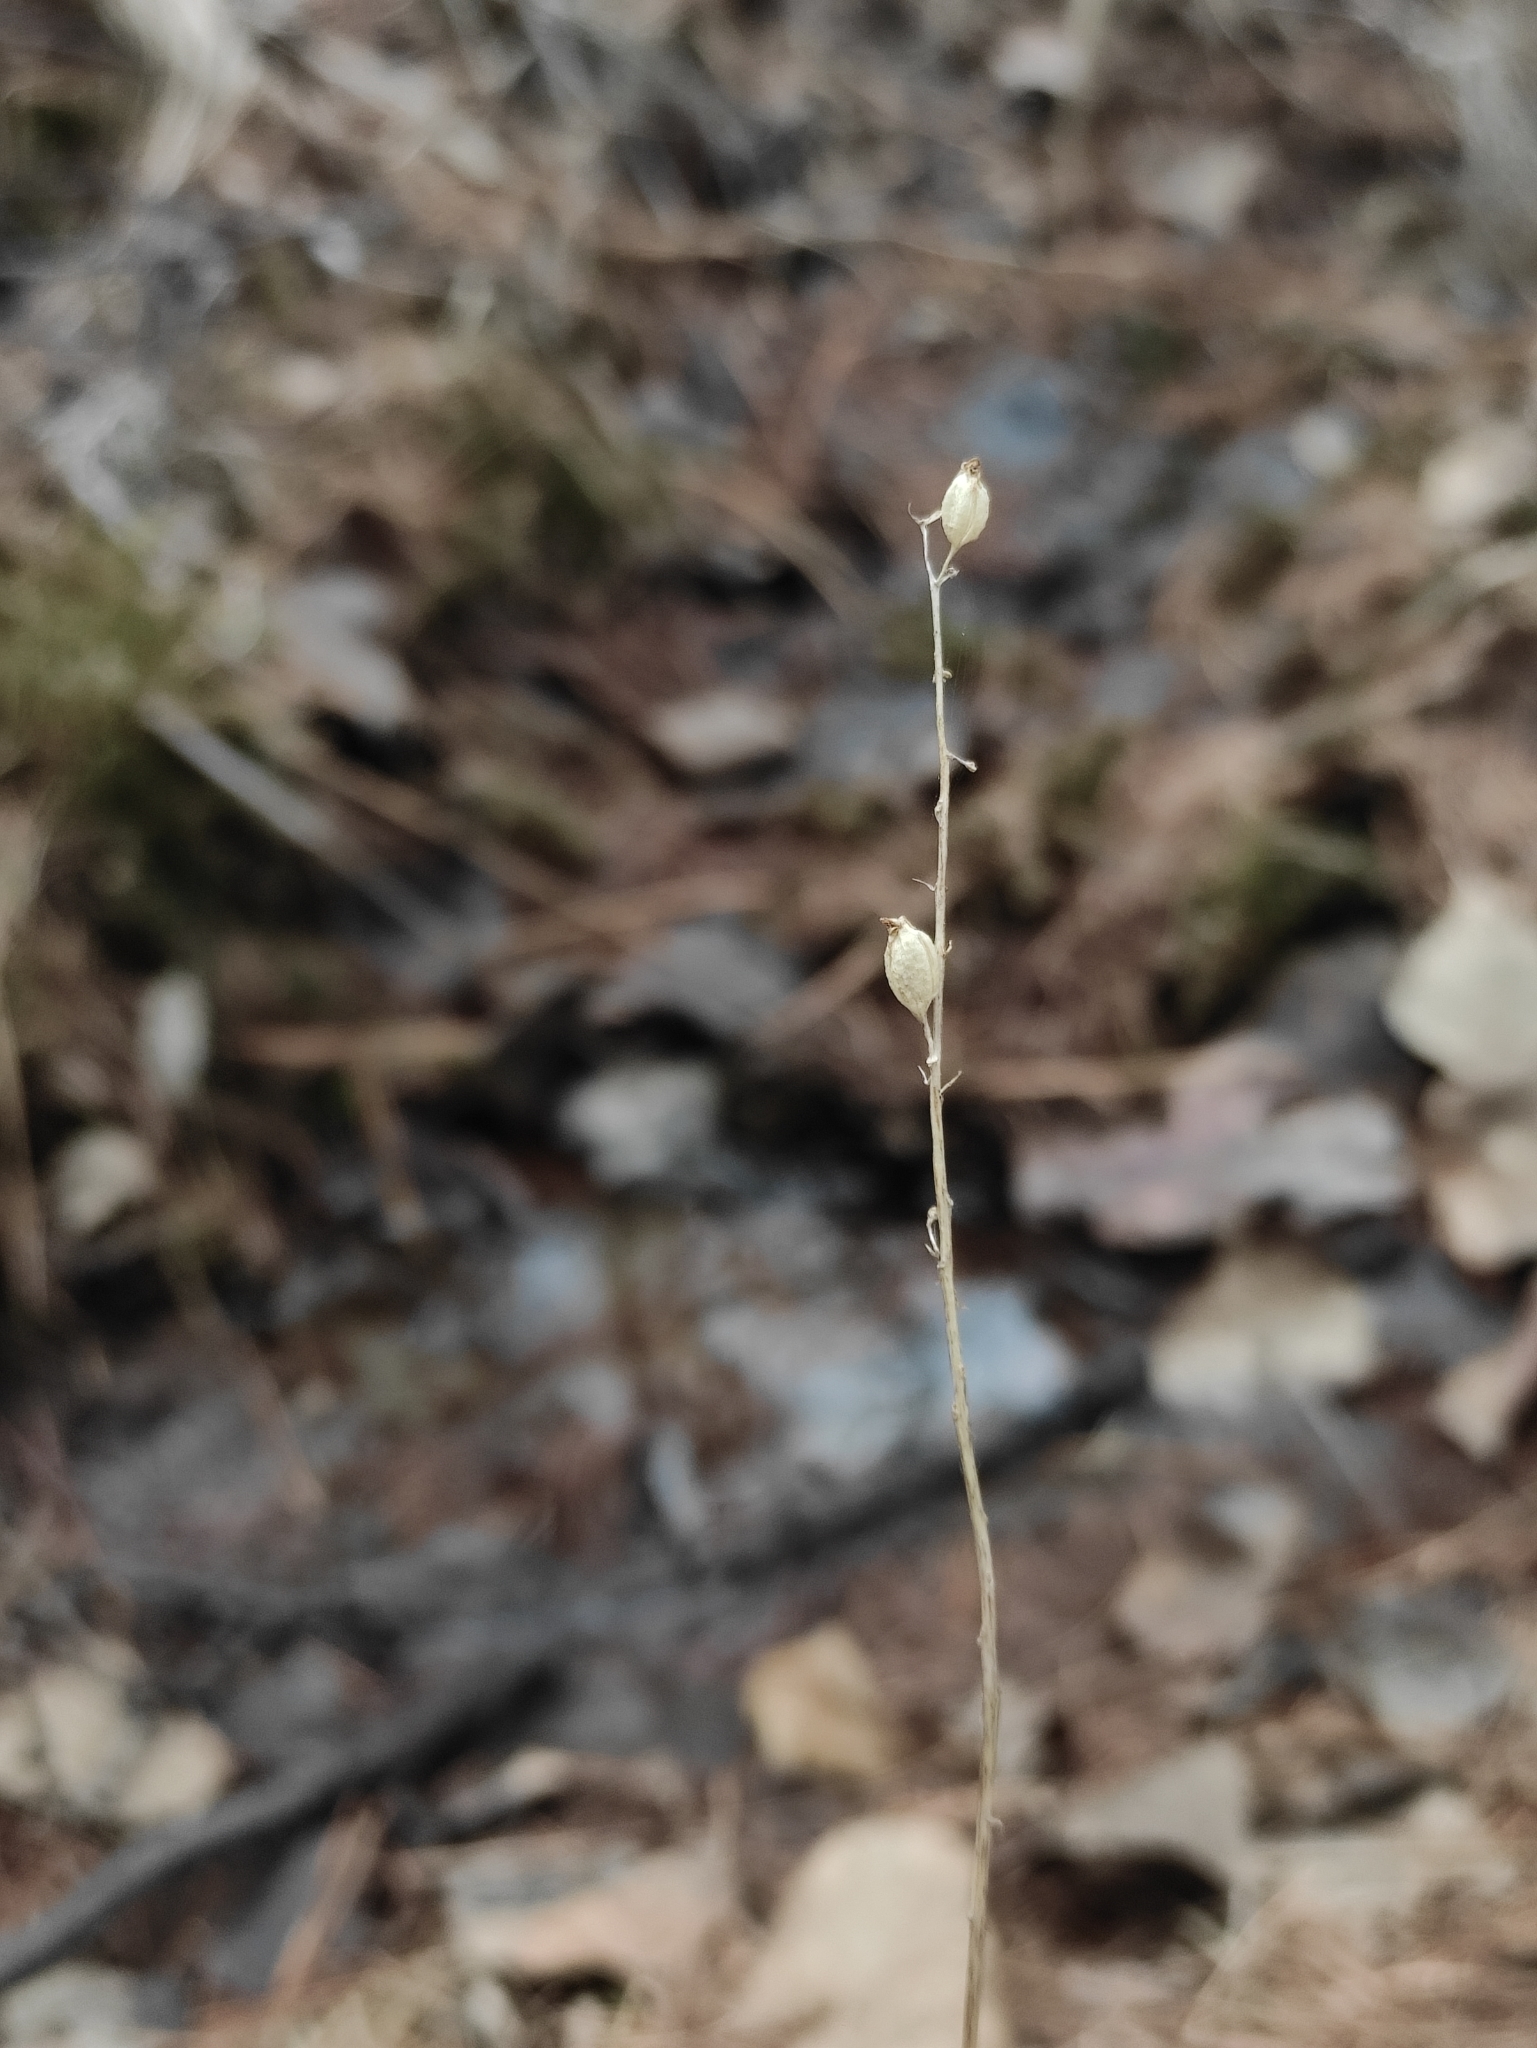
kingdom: Plantae
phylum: Tracheophyta
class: Liliopsida
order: Asparagales
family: Orchidaceae
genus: Malaxis
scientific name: Malaxis monophyllos
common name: White adder's-mouth
